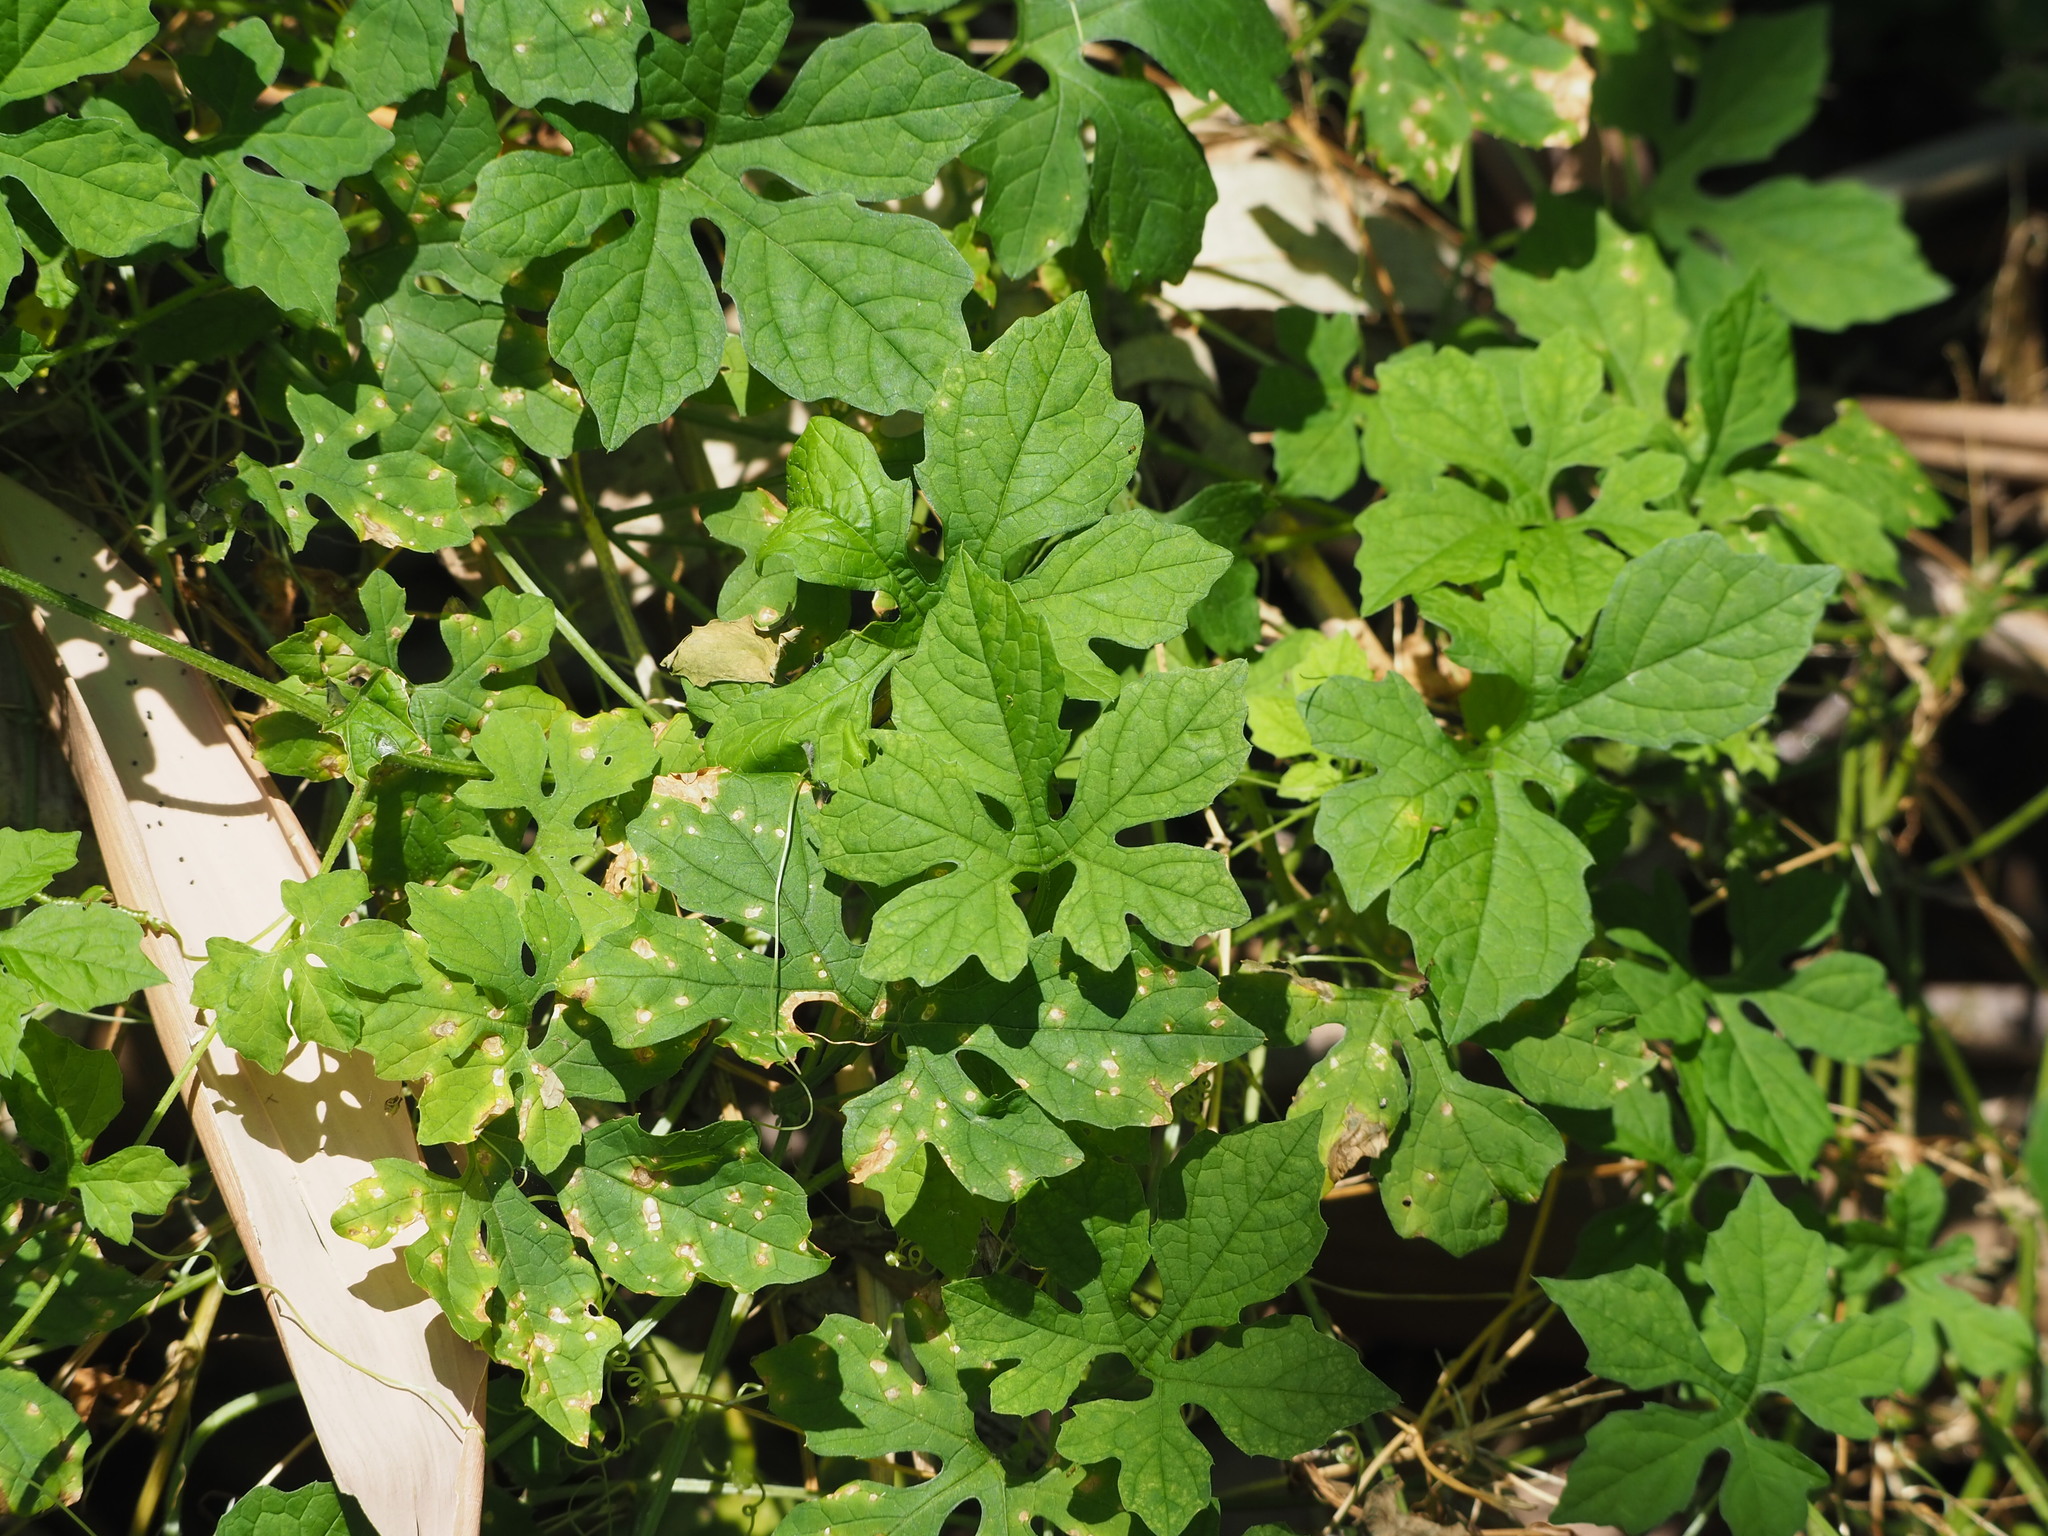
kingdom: Plantae
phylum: Tracheophyta
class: Magnoliopsida
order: Cucurbitales
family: Cucurbitaceae
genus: Momordica
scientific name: Momordica charantia
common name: Balsampear
